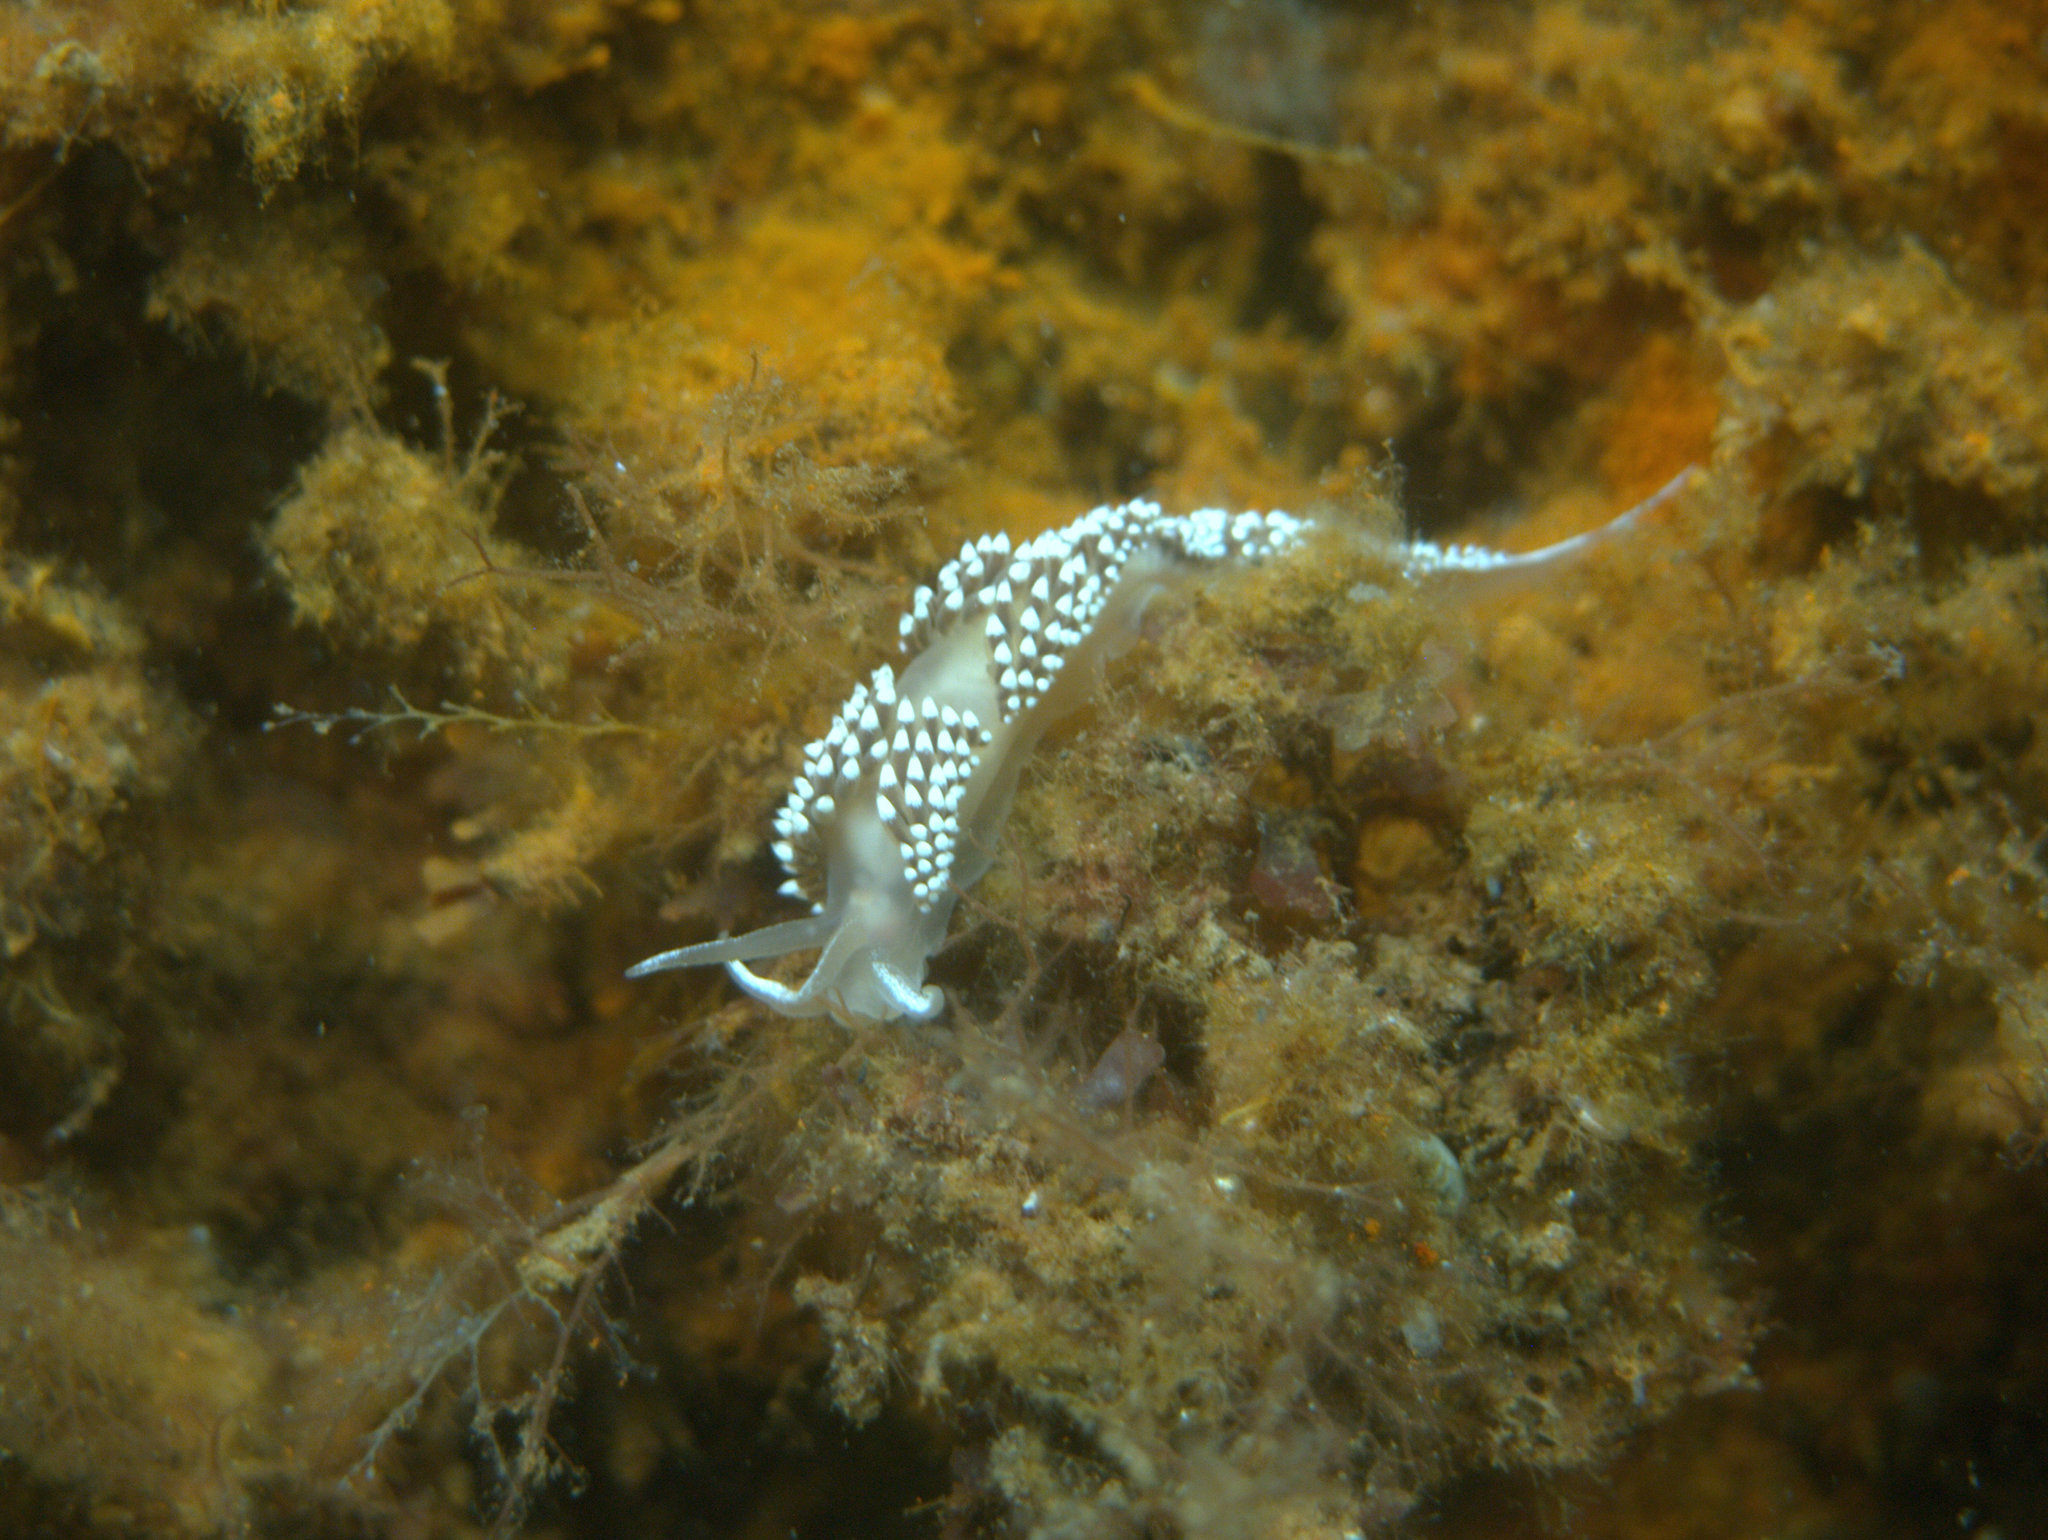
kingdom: Animalia
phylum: Mollusca
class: Gastropoda
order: Nudibranchia
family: Coryphellidae
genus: Coryphella
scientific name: Coryphella verrucosa
